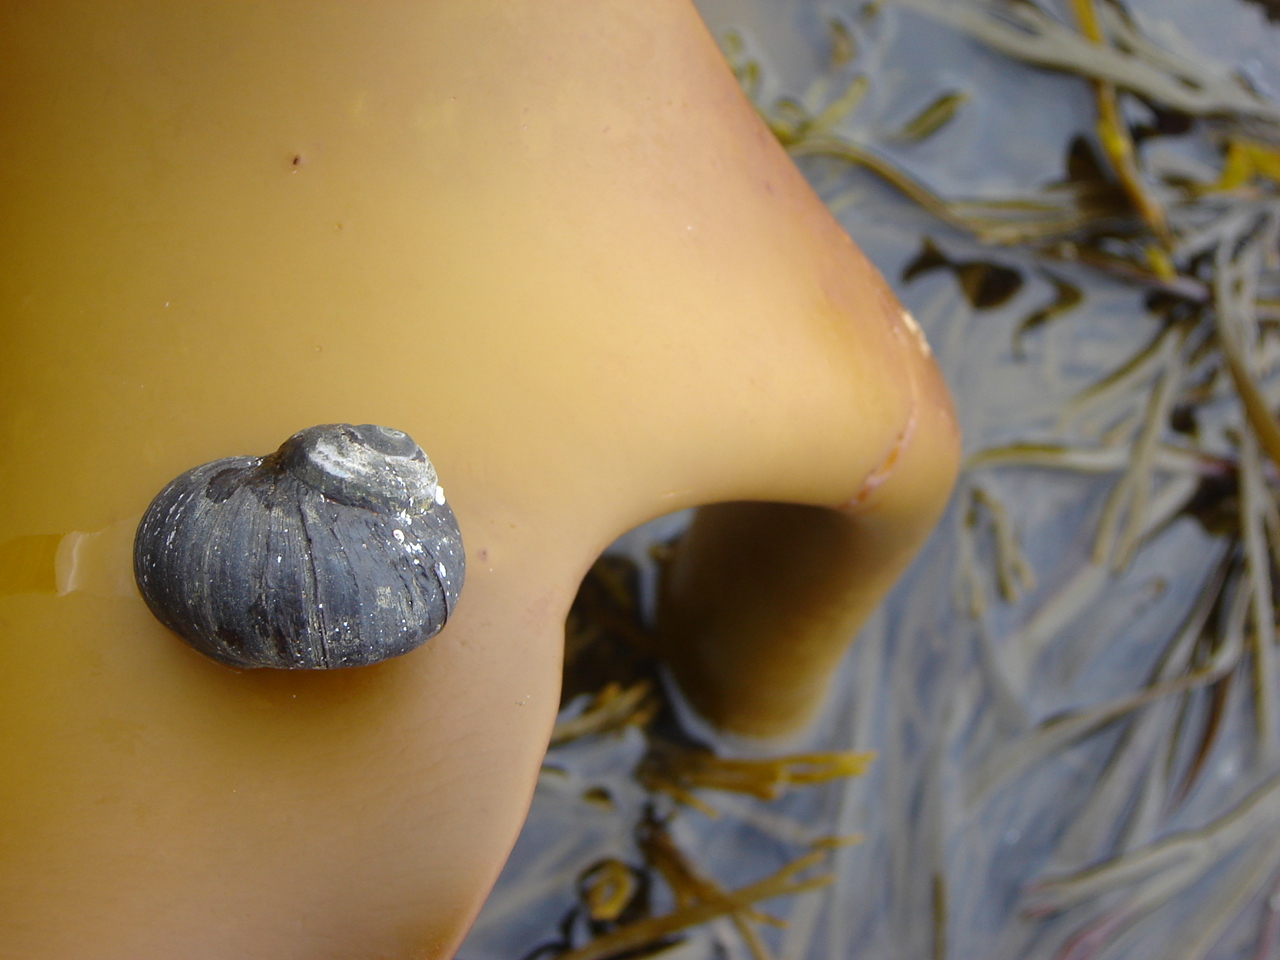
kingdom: Animalia
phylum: Mollusca
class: Gastropoda
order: Trochida
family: Turbinidae
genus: Lunella
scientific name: Lunella smaragda
